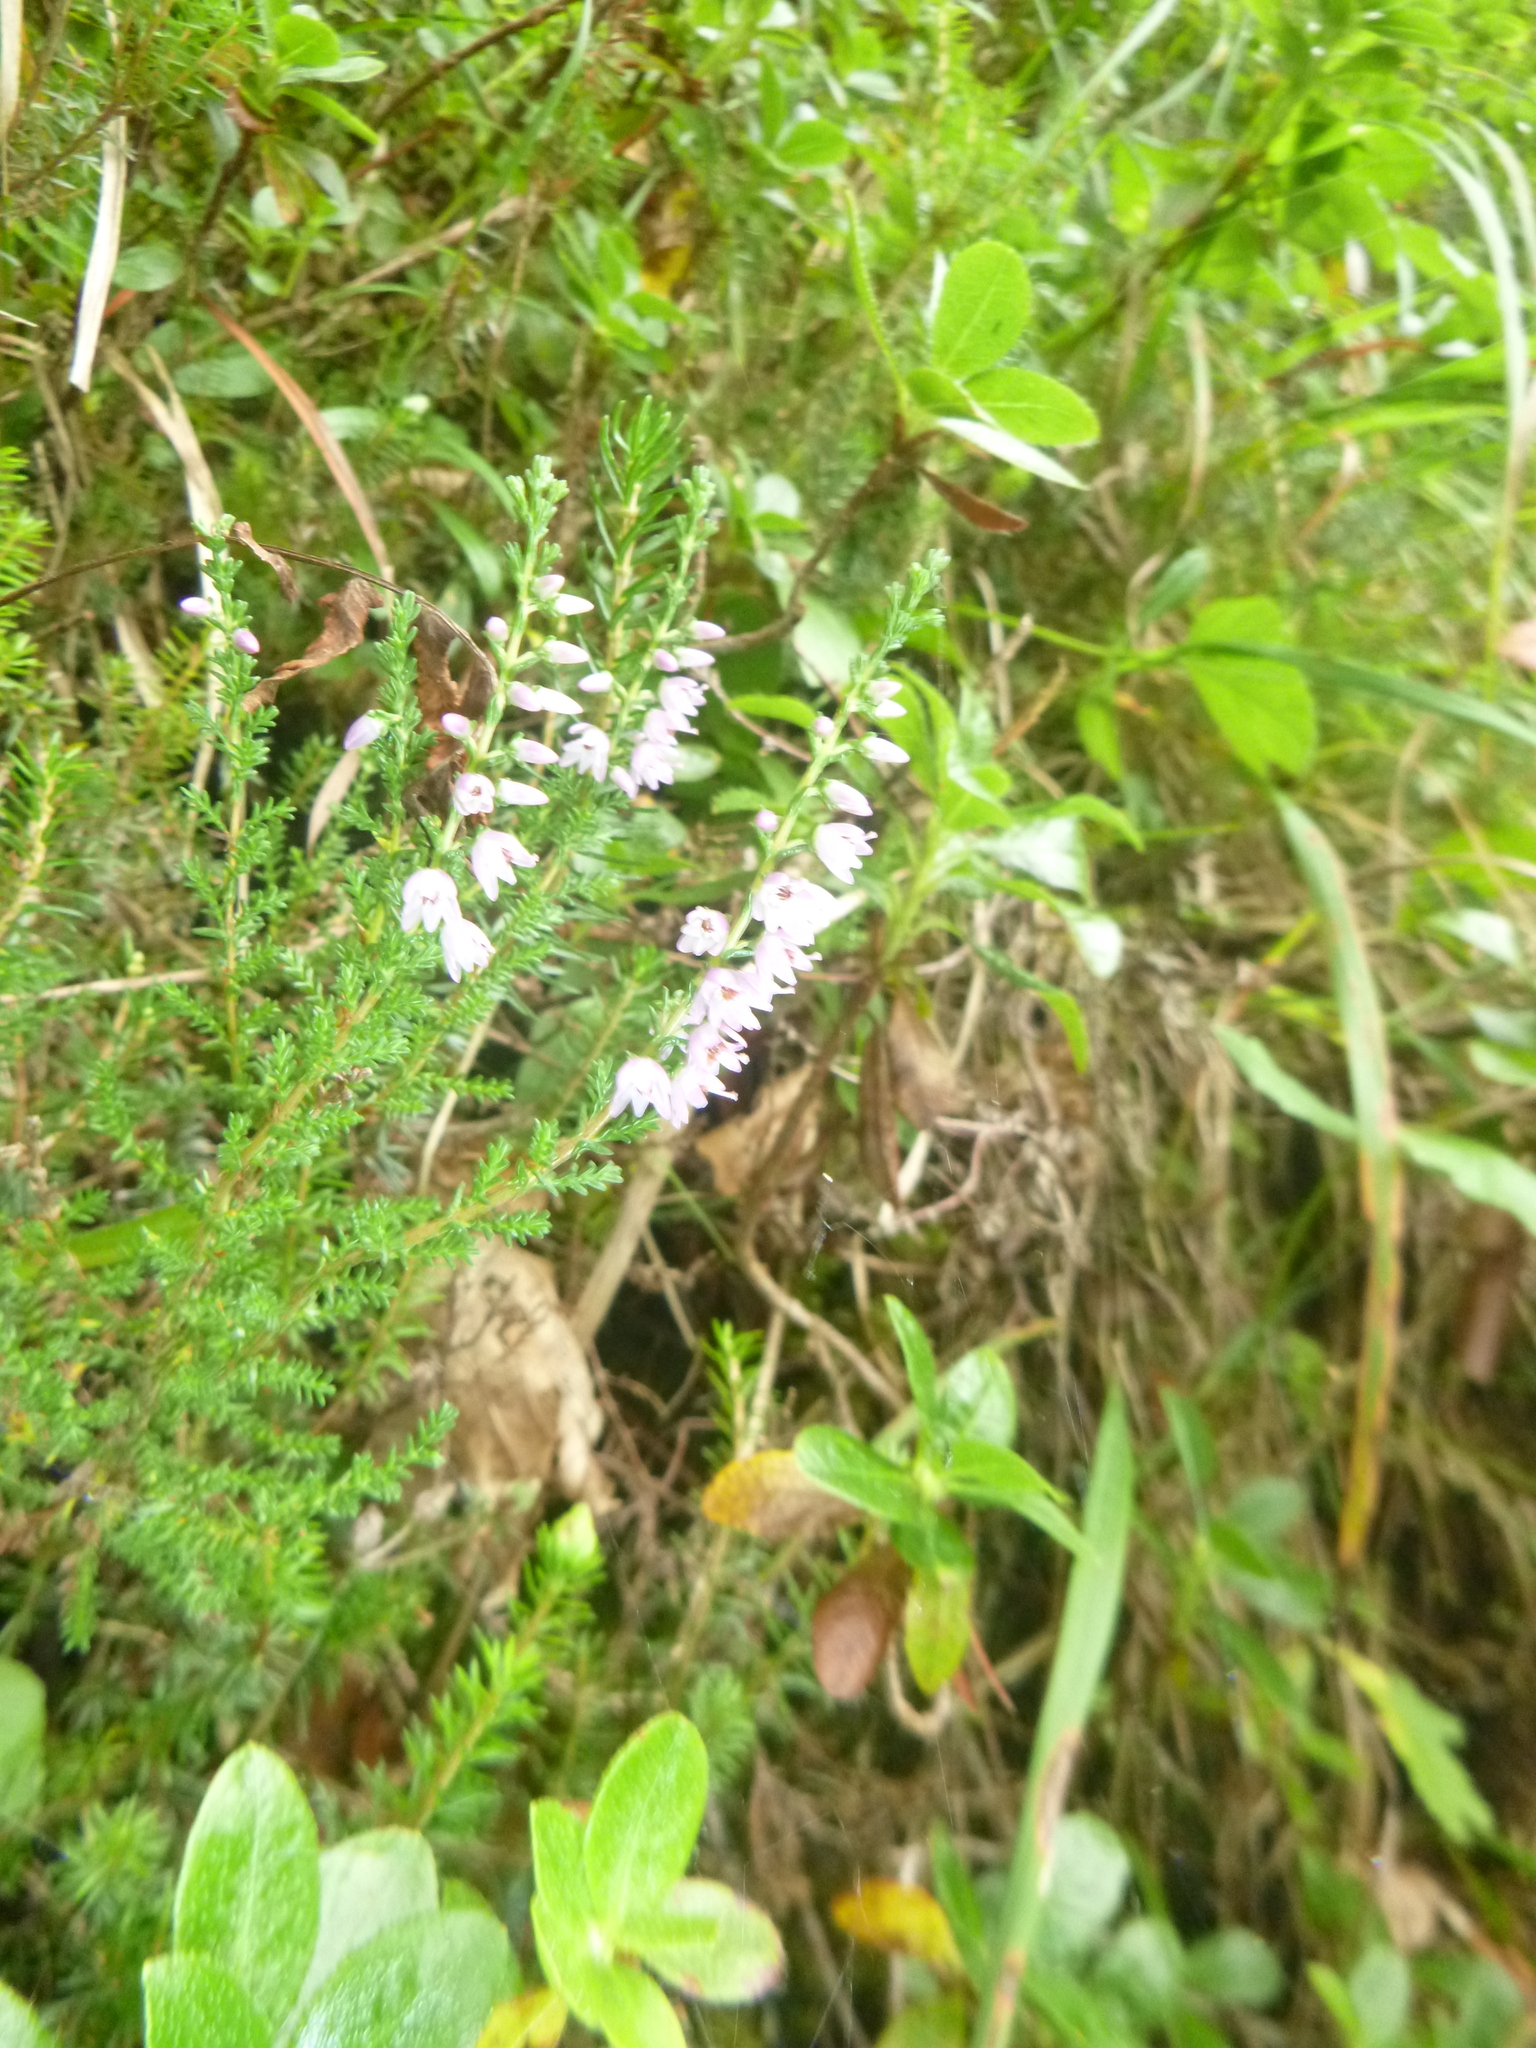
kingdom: Plantae
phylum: Tracheophyta
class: Magnoliopsida
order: Ericales
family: Ericaceae
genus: Calluna
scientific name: Calluna vulgaris
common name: Heather
